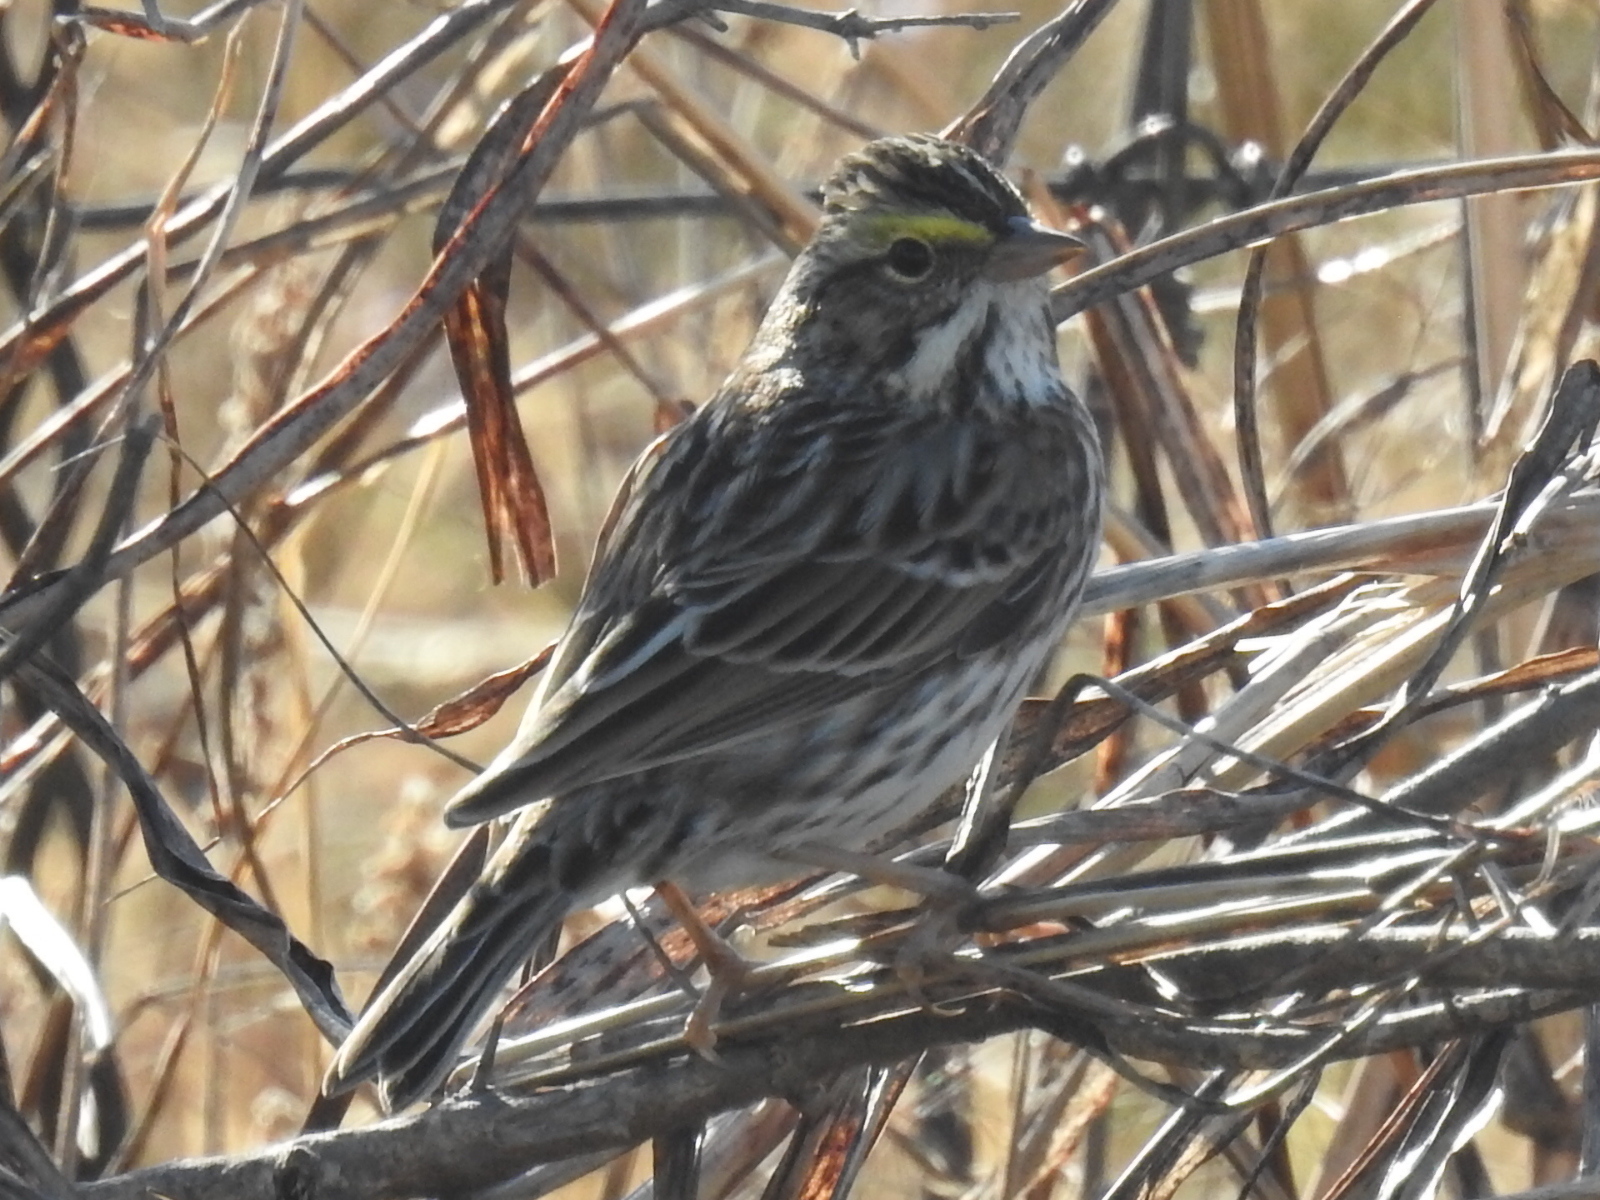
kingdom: Animalia
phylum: Chordata
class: Aves
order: Passeriformes
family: Passerellidae
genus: Passerculus
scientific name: Passerculus sandwichensis
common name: Savannah sparrow
